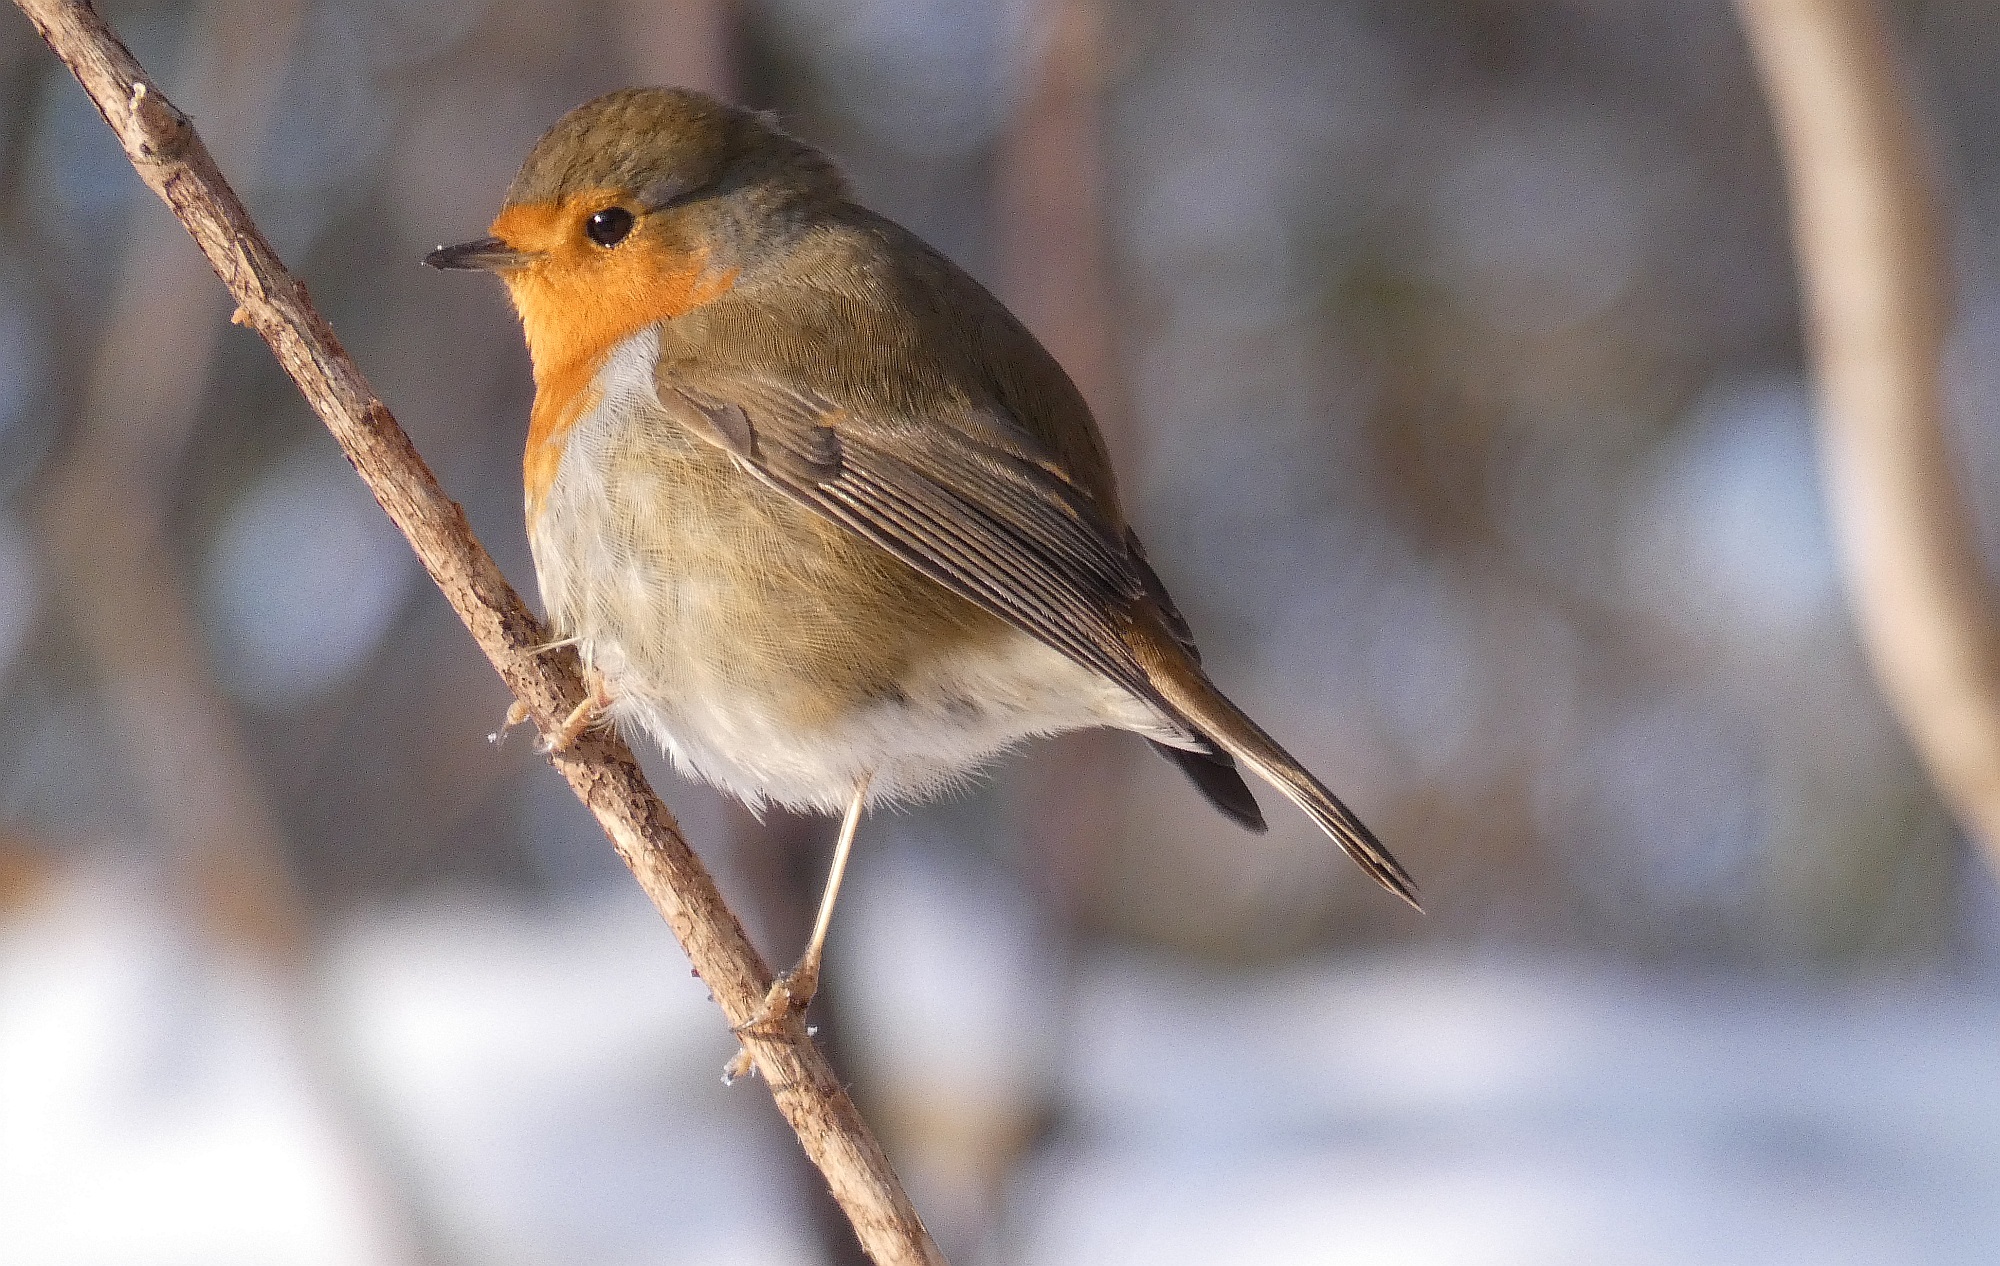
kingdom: Animalia
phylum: Chordata
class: Aves
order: Passeriformes
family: Muscicapidae
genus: Erithacus
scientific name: Erithacus rubecula
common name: European robin
